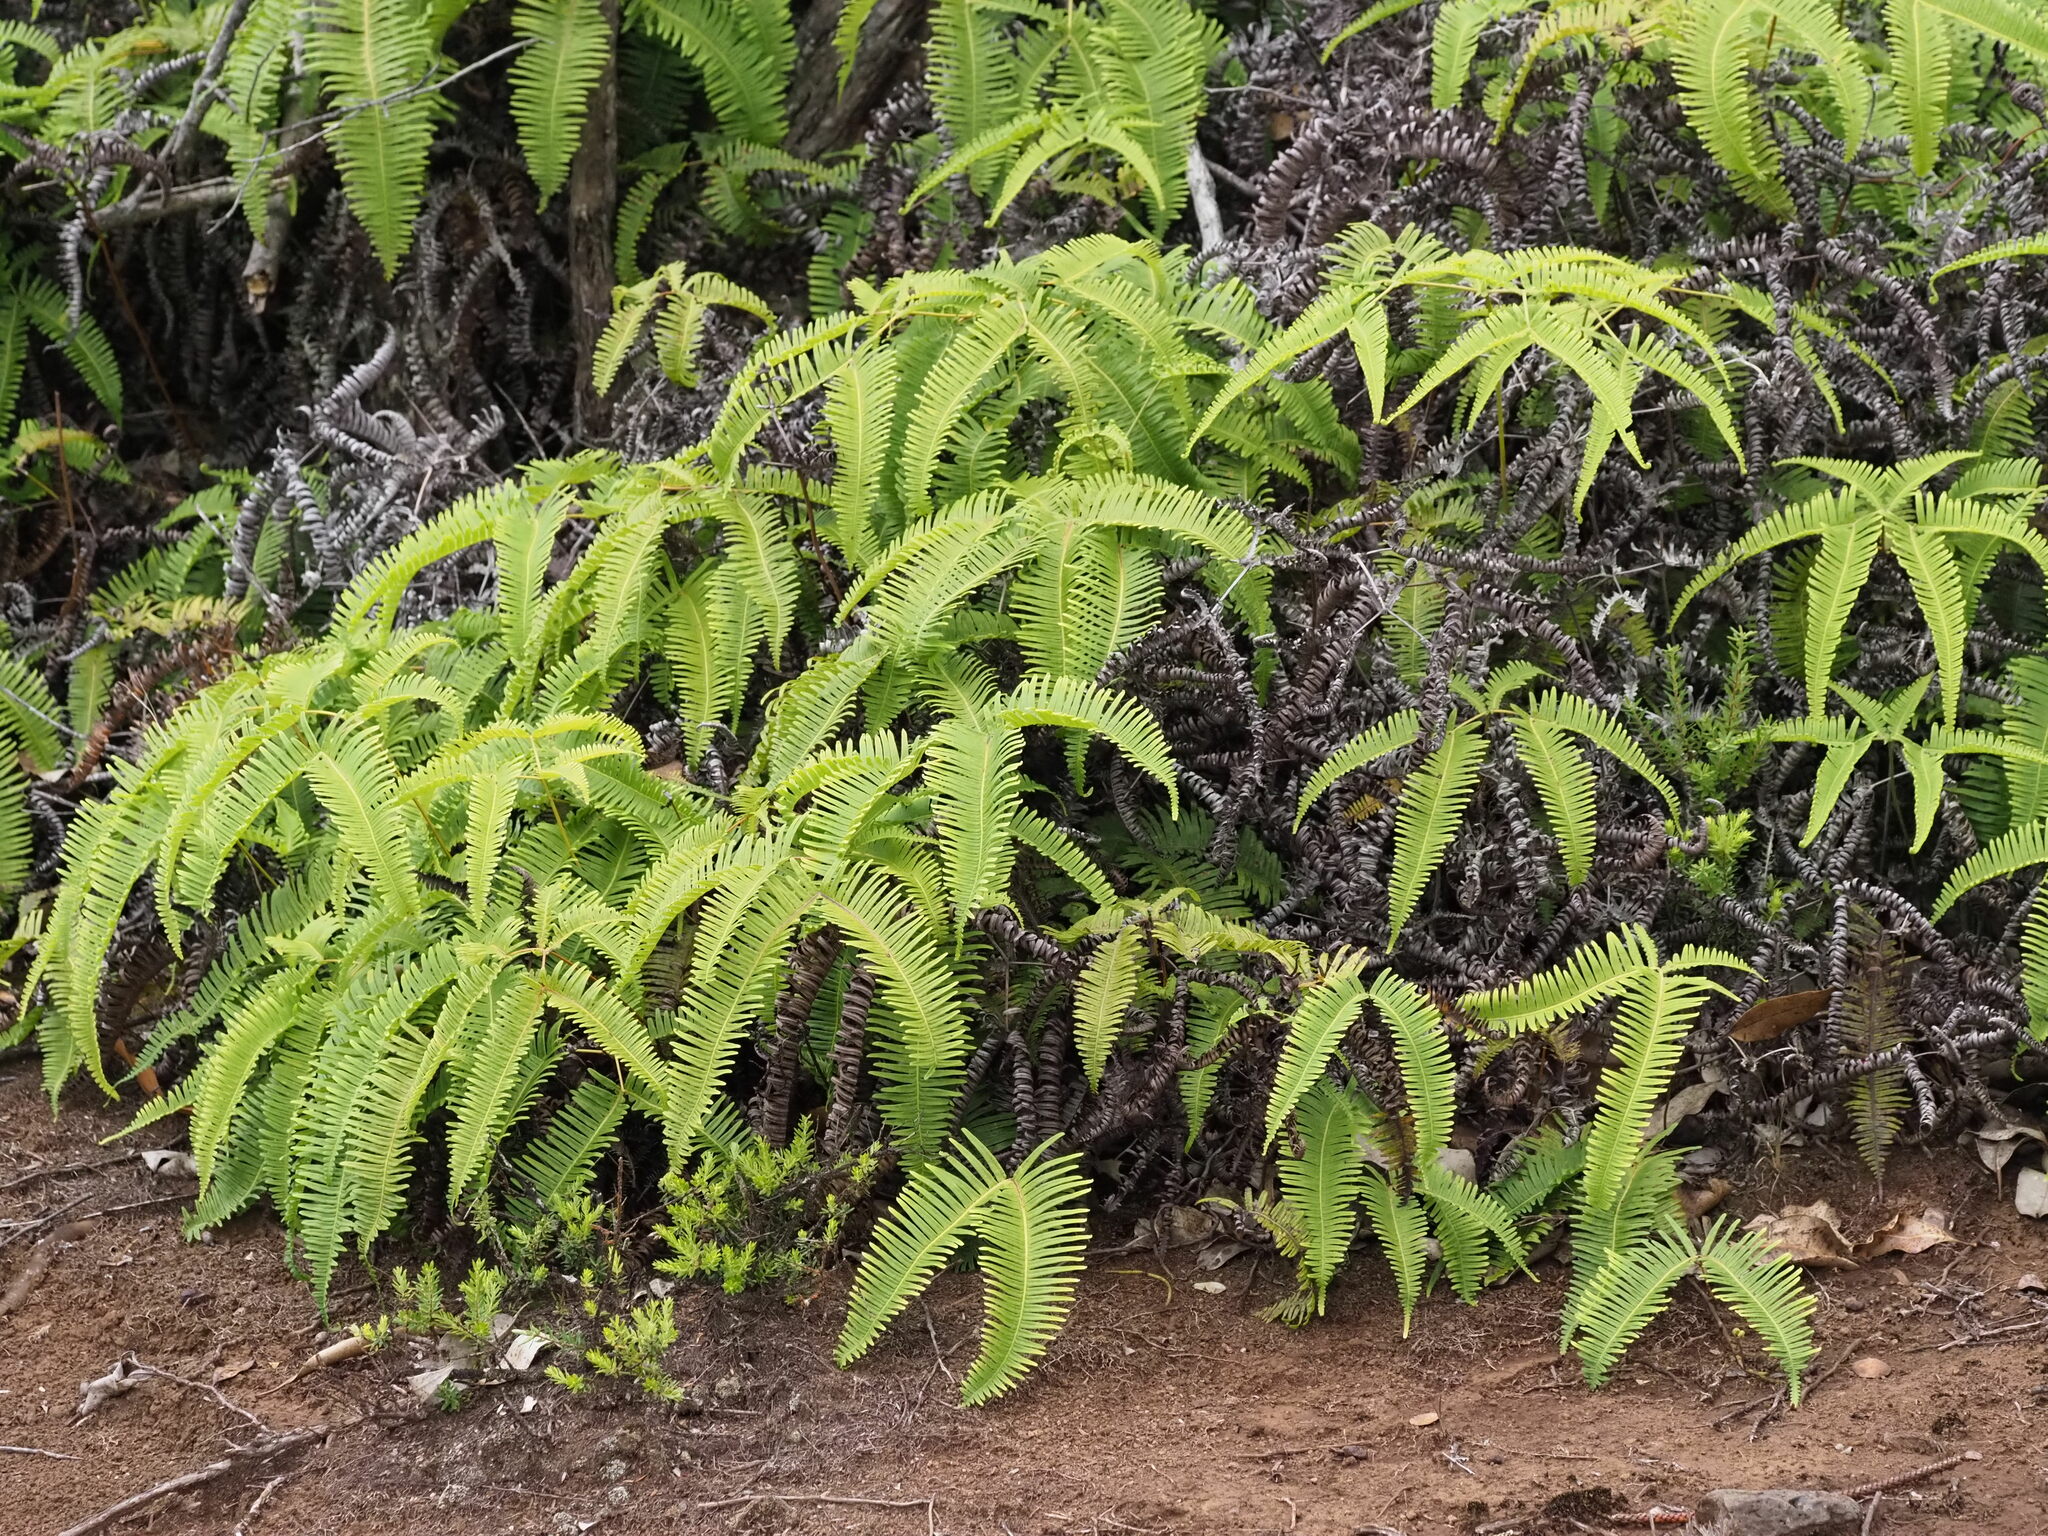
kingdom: Plantae
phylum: Tracheophyta
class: Polypodiopsida
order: Gleicheniales
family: Gleicheniaceae
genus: Dicranopteris
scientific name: Dicranopteris linearis
